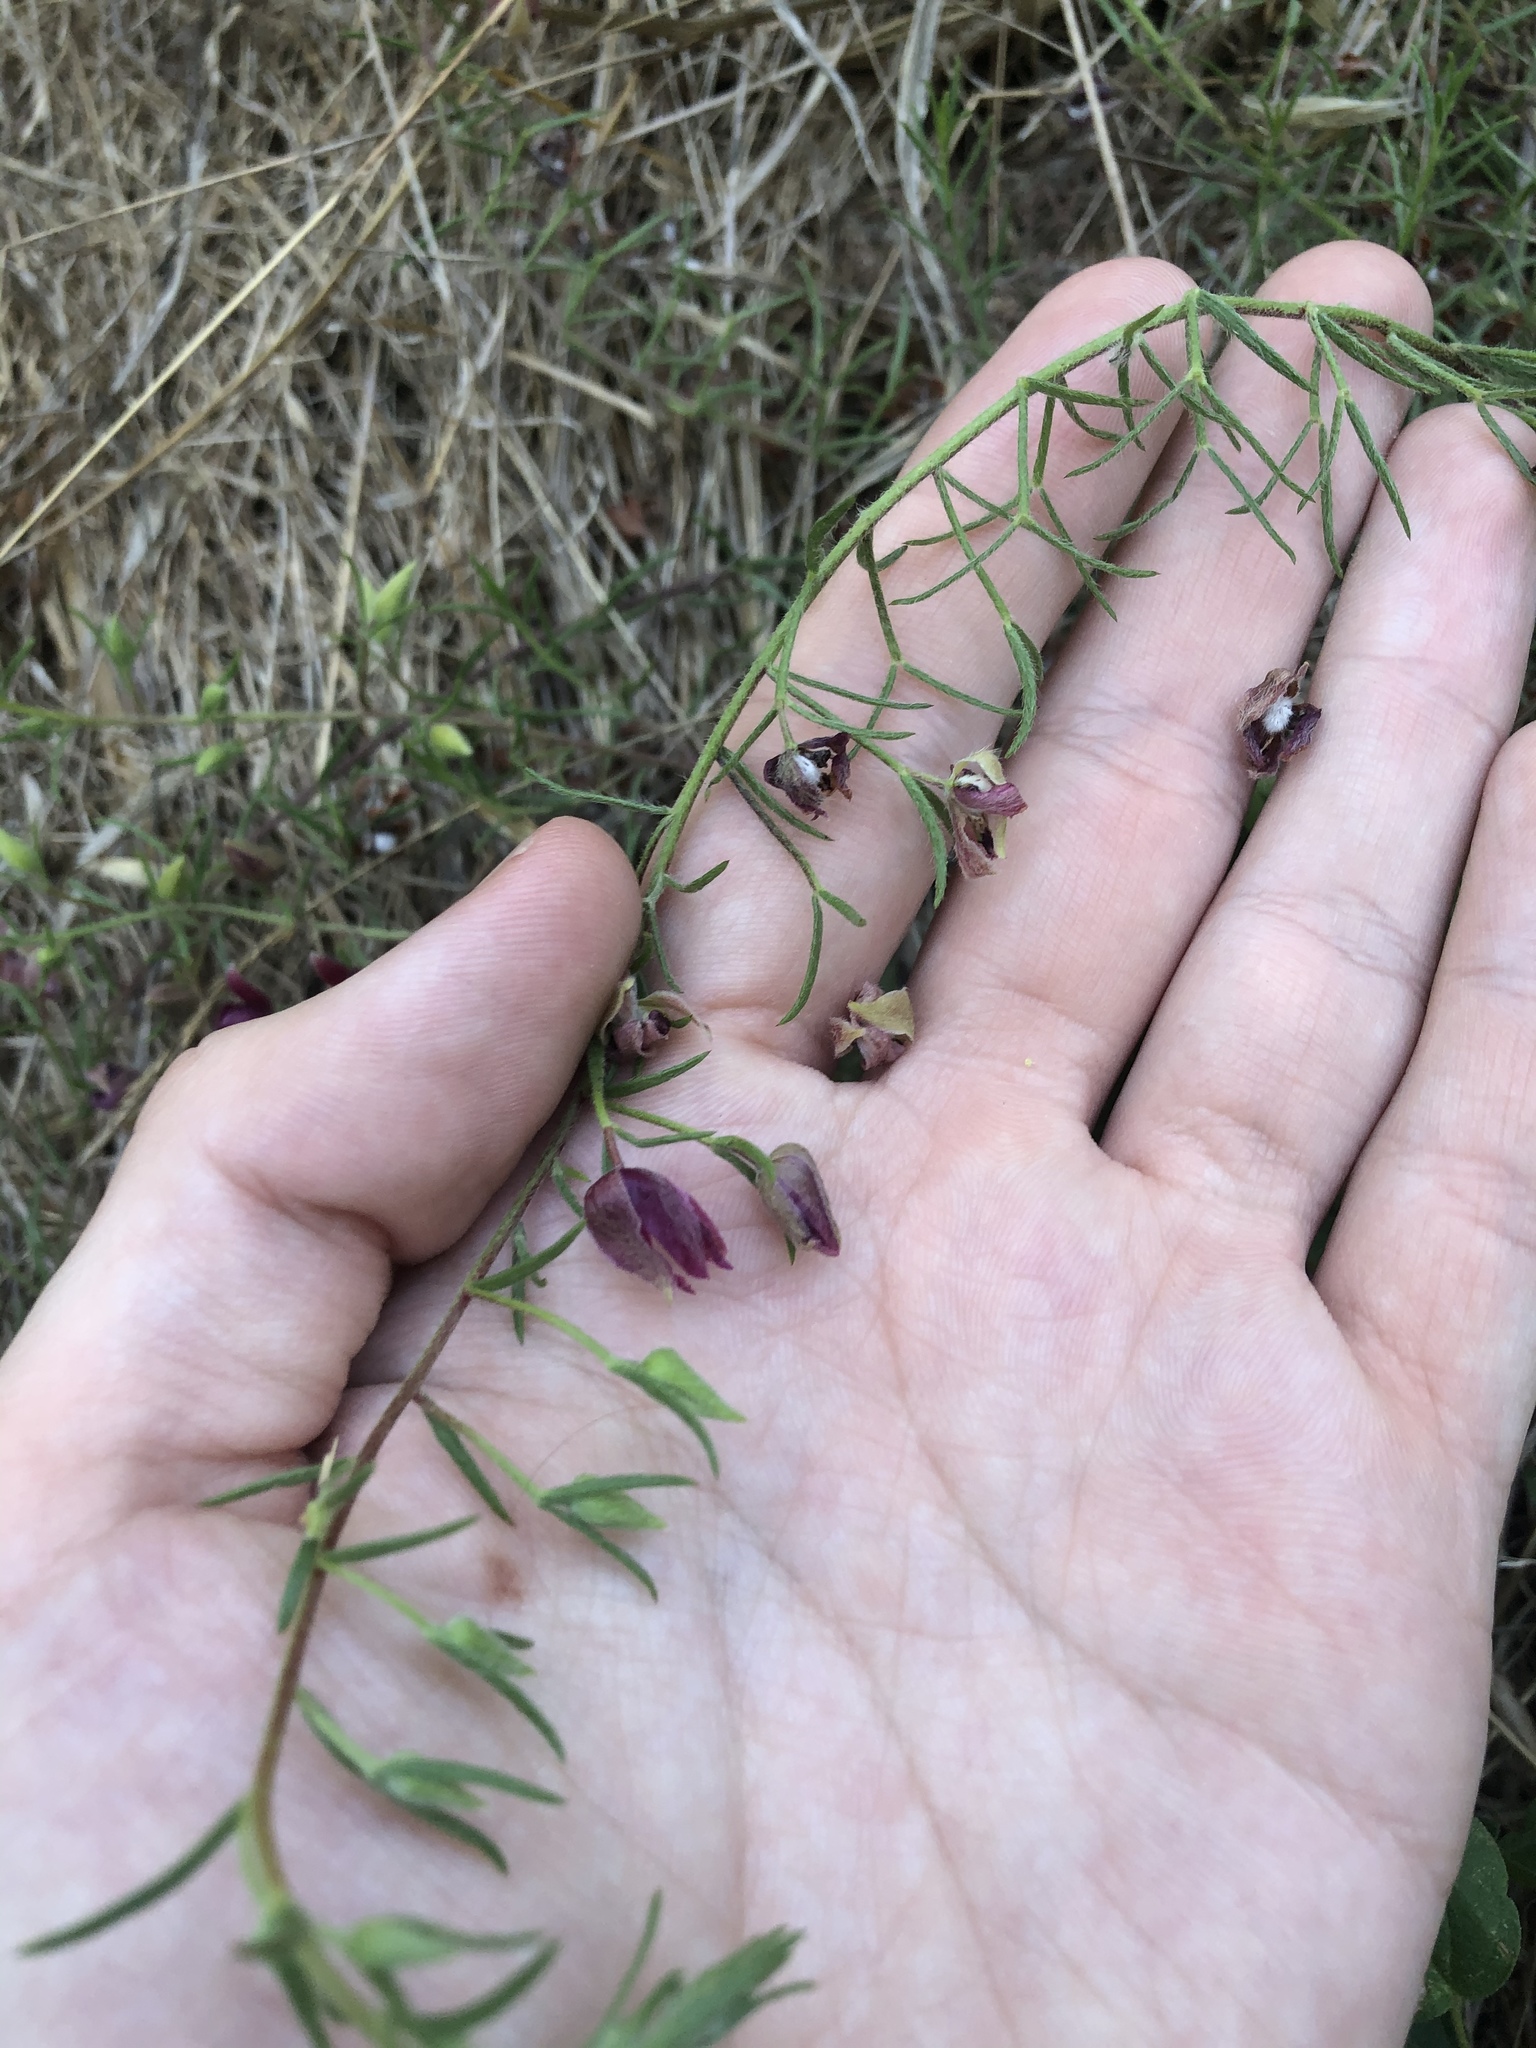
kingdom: Plantae
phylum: Tracheophyta
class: Magnoliopsida
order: Zygophyllales
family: Krameriaceae
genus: Krameria
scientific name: Krameria lanceolata
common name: Ratany
